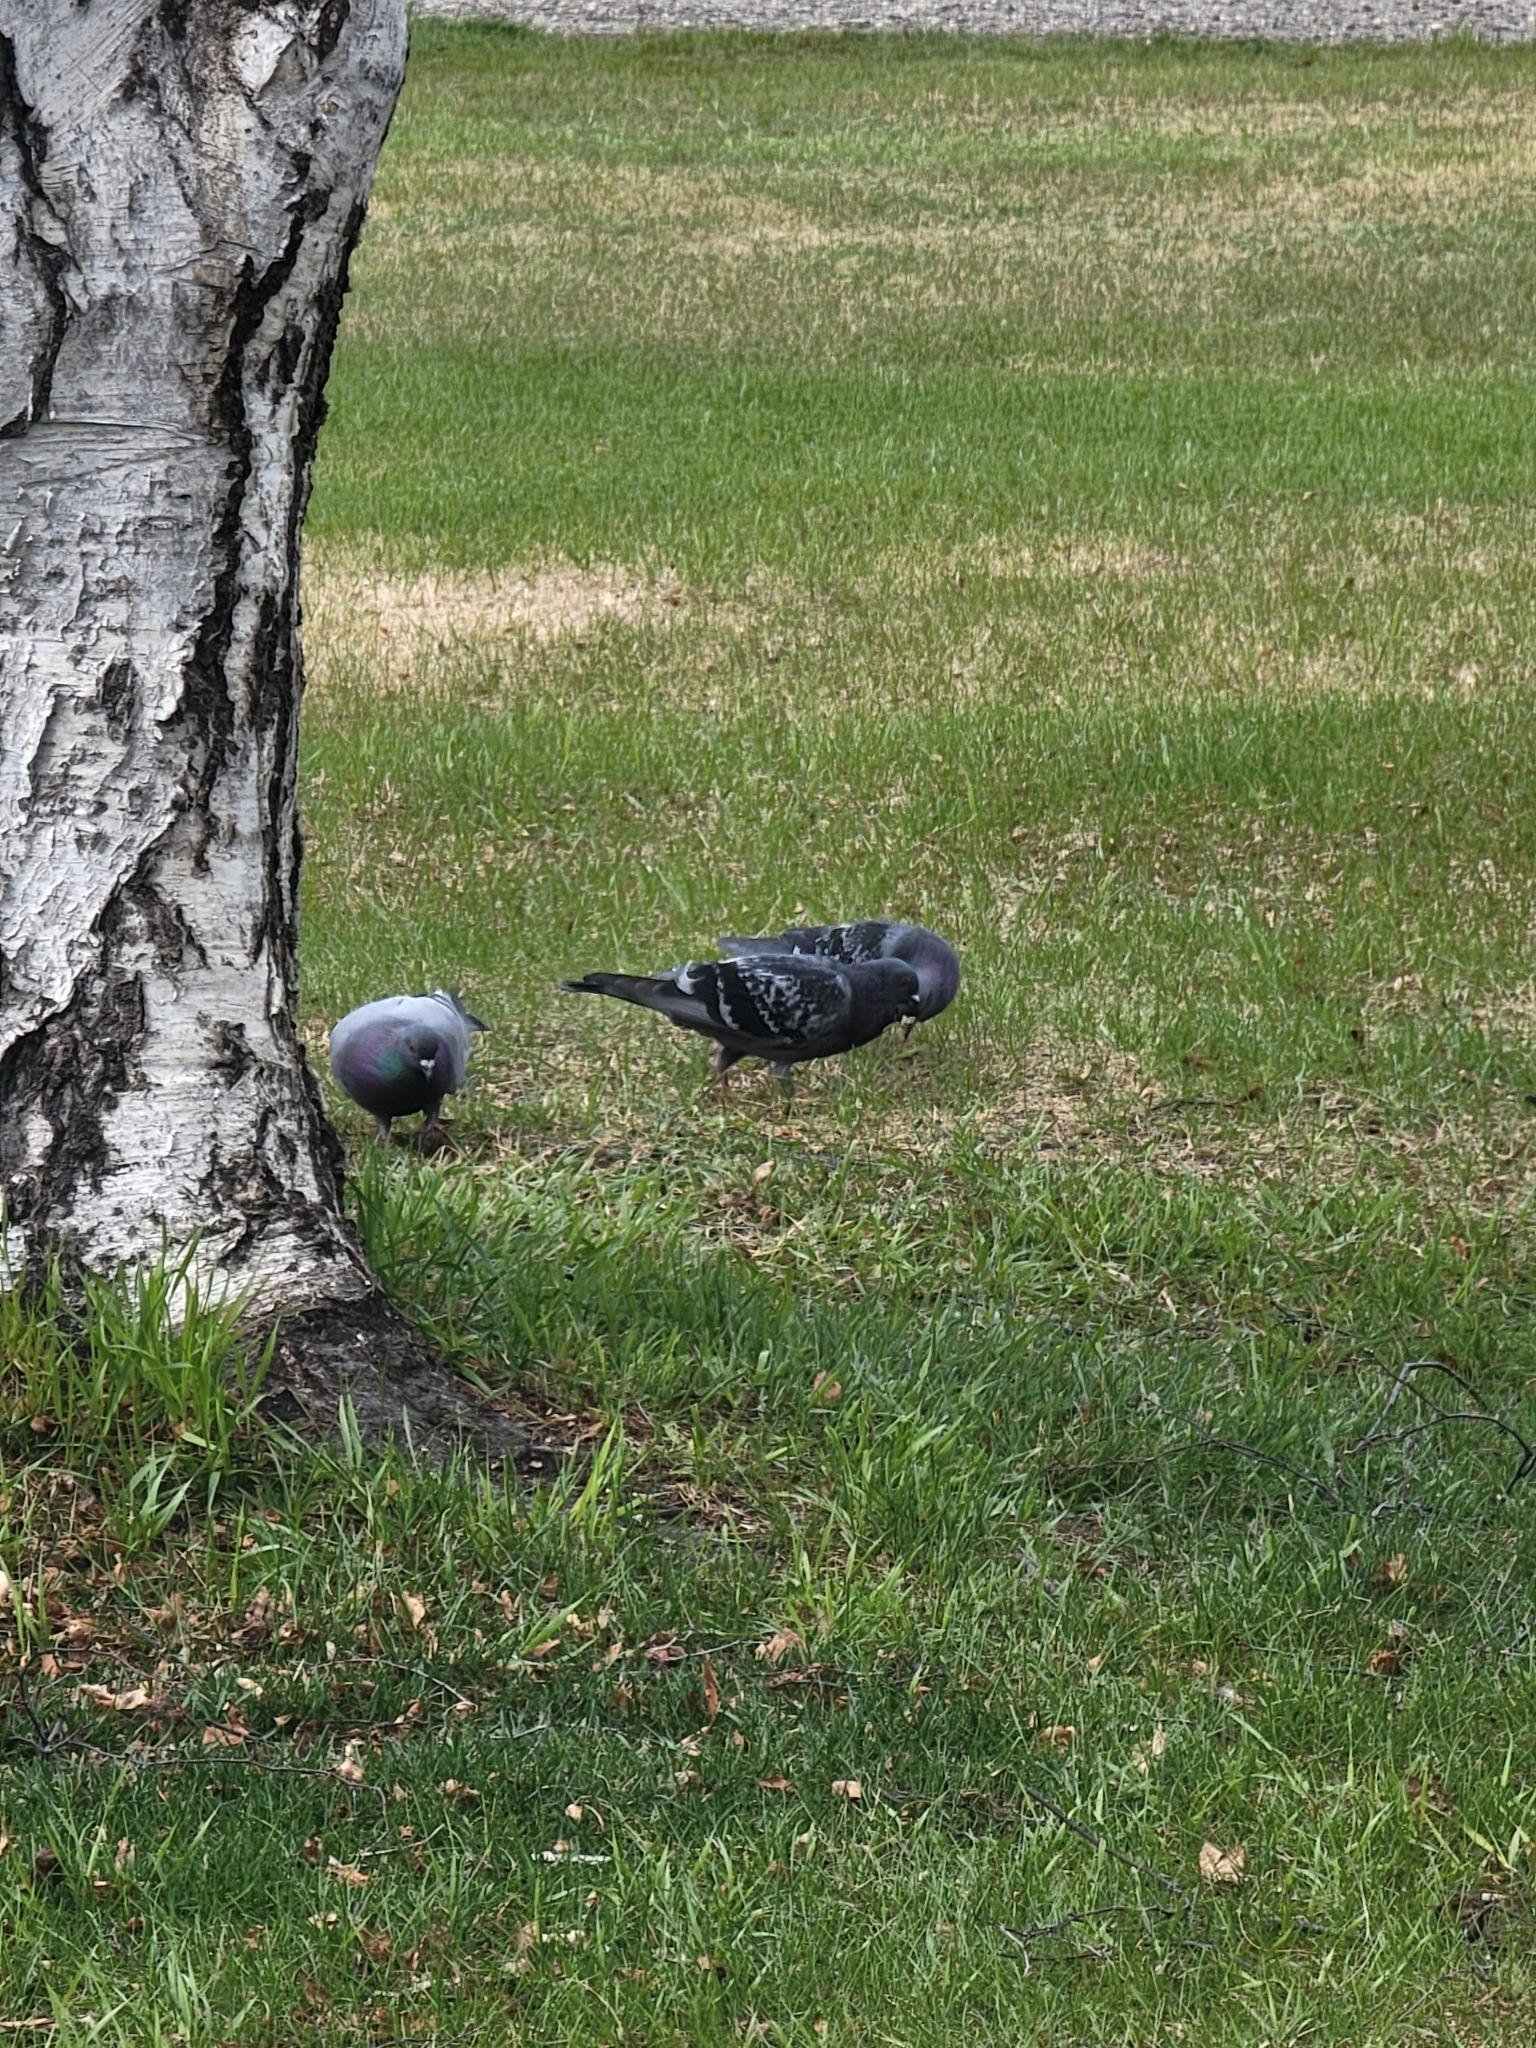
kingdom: Animalia
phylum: Chordata
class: Aves
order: Columbiformes
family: Columbidae
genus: Columba
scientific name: Columba livia
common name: Rock pigeon
